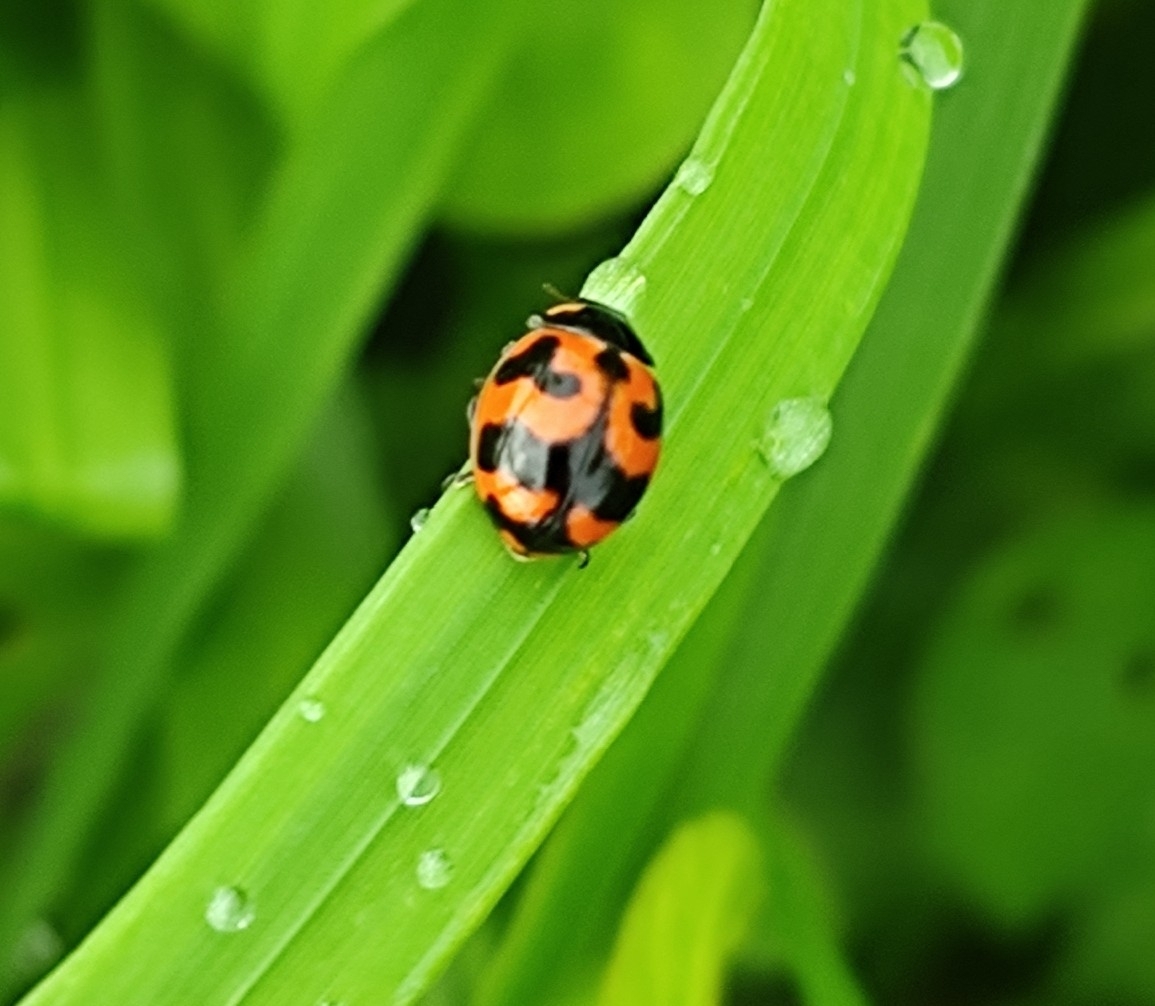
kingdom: Animalia
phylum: Arthropoda
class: Insecta
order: Coleoptera
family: Coccinellidae
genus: Coccinella
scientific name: Coccinella transversalis
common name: Transverse lady beetle
